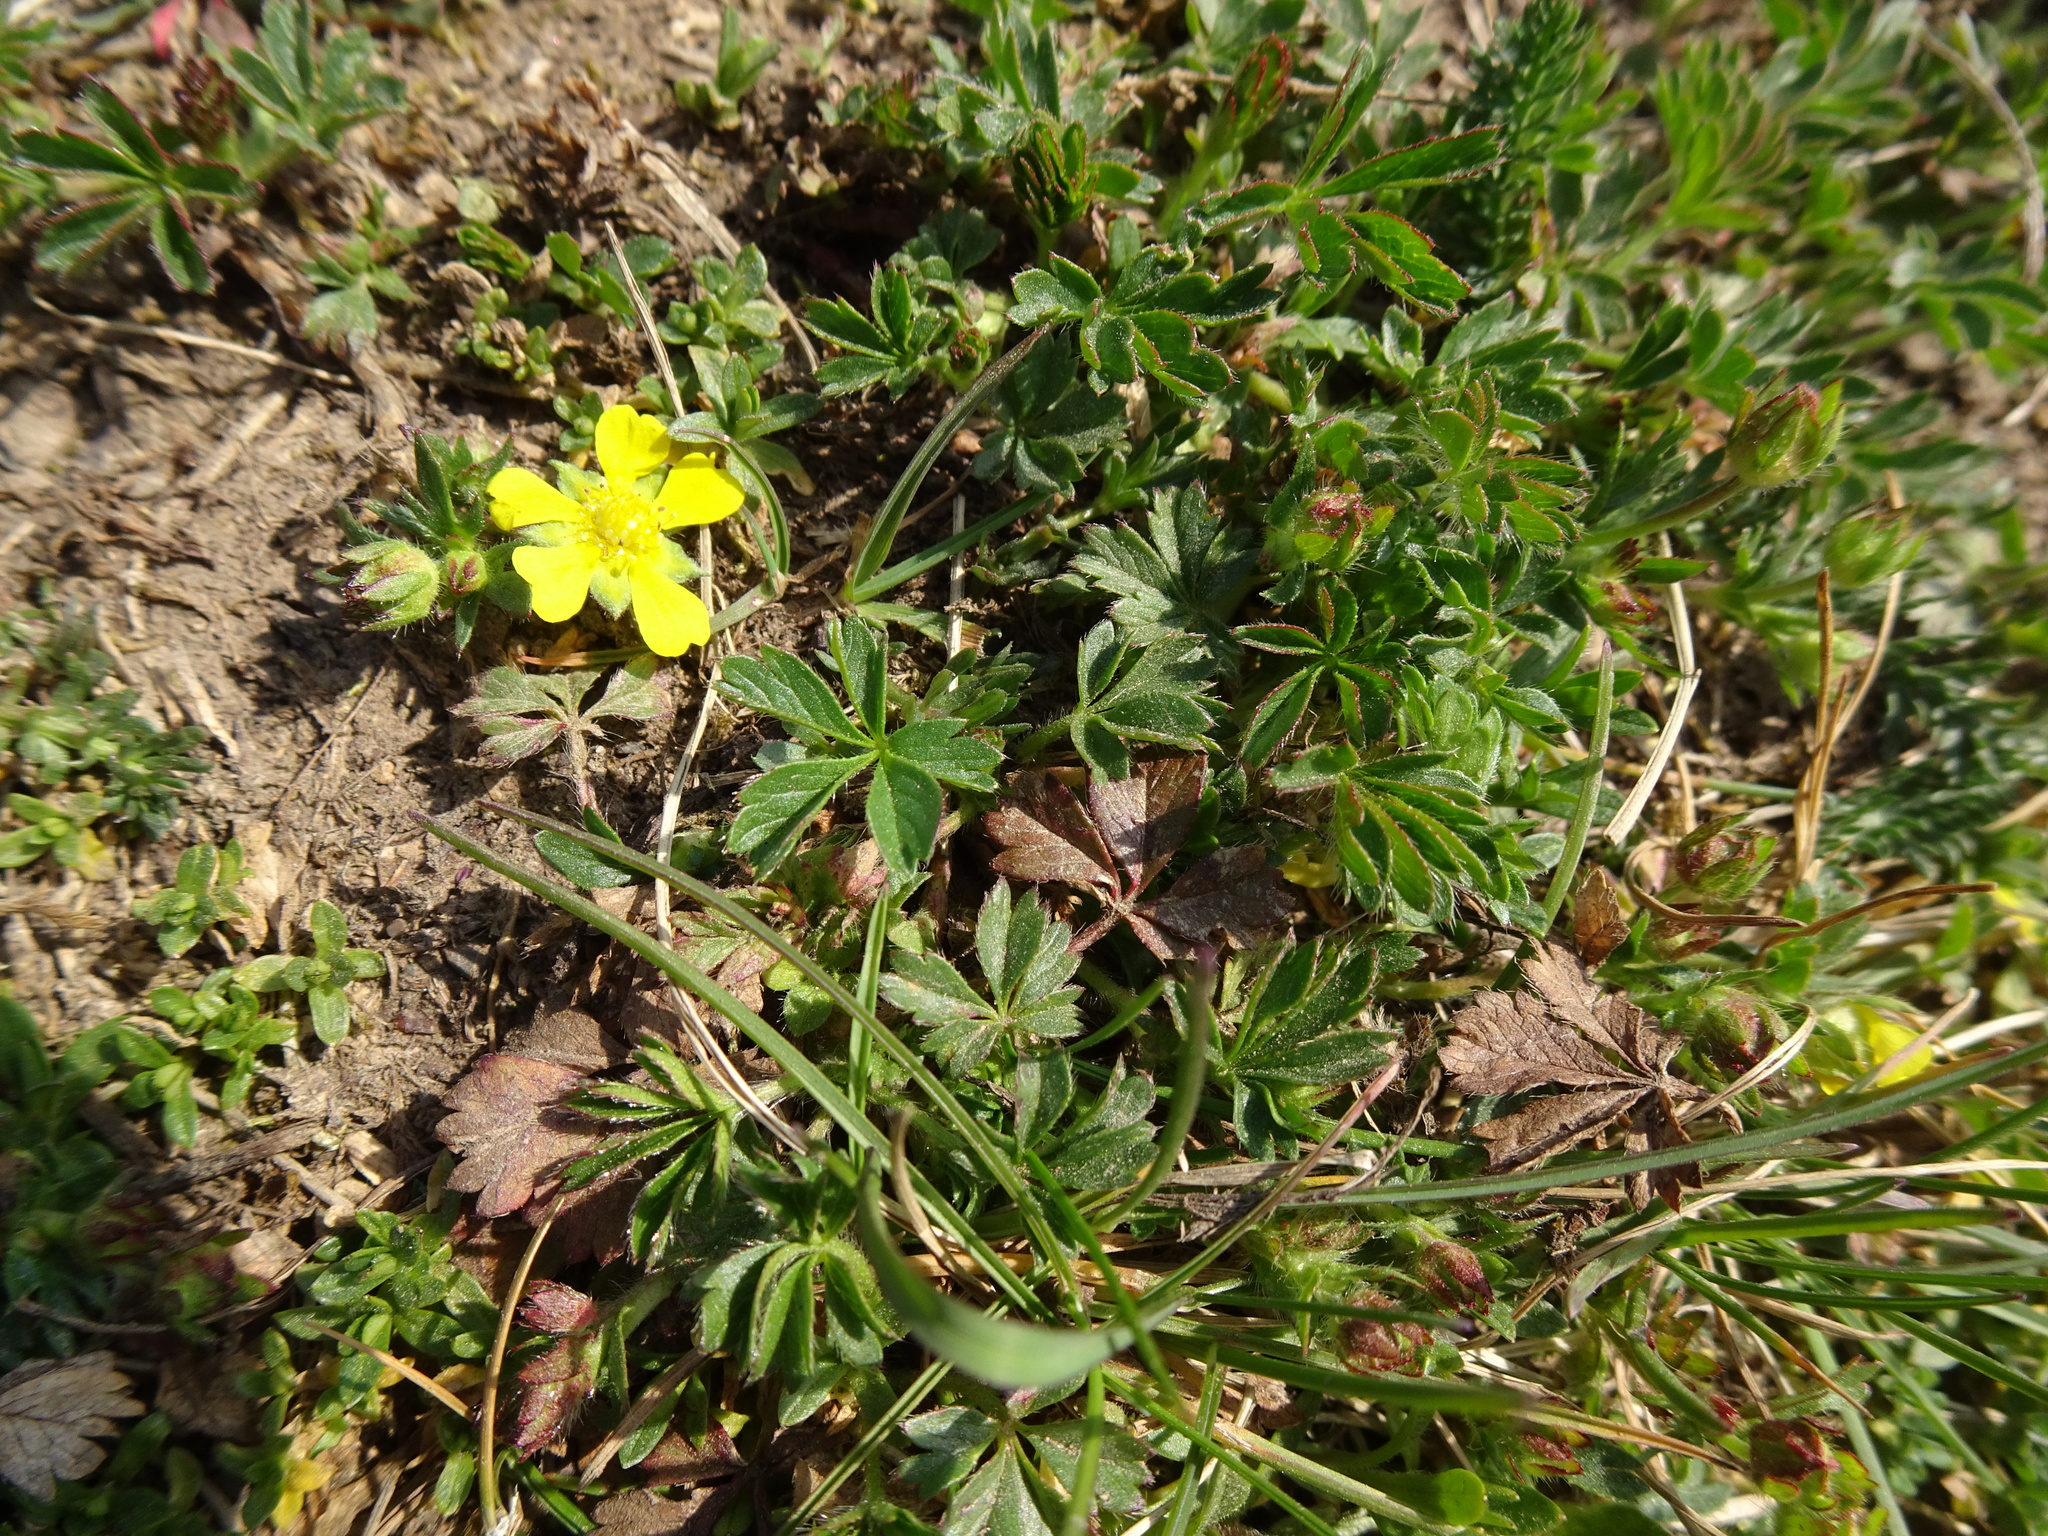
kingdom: Plantae
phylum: Tracheophyta
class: Magnoliopsida
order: Rosales
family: Rosaceae
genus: Potentilla
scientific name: Potentilla verna
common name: Spring cinquefoil
